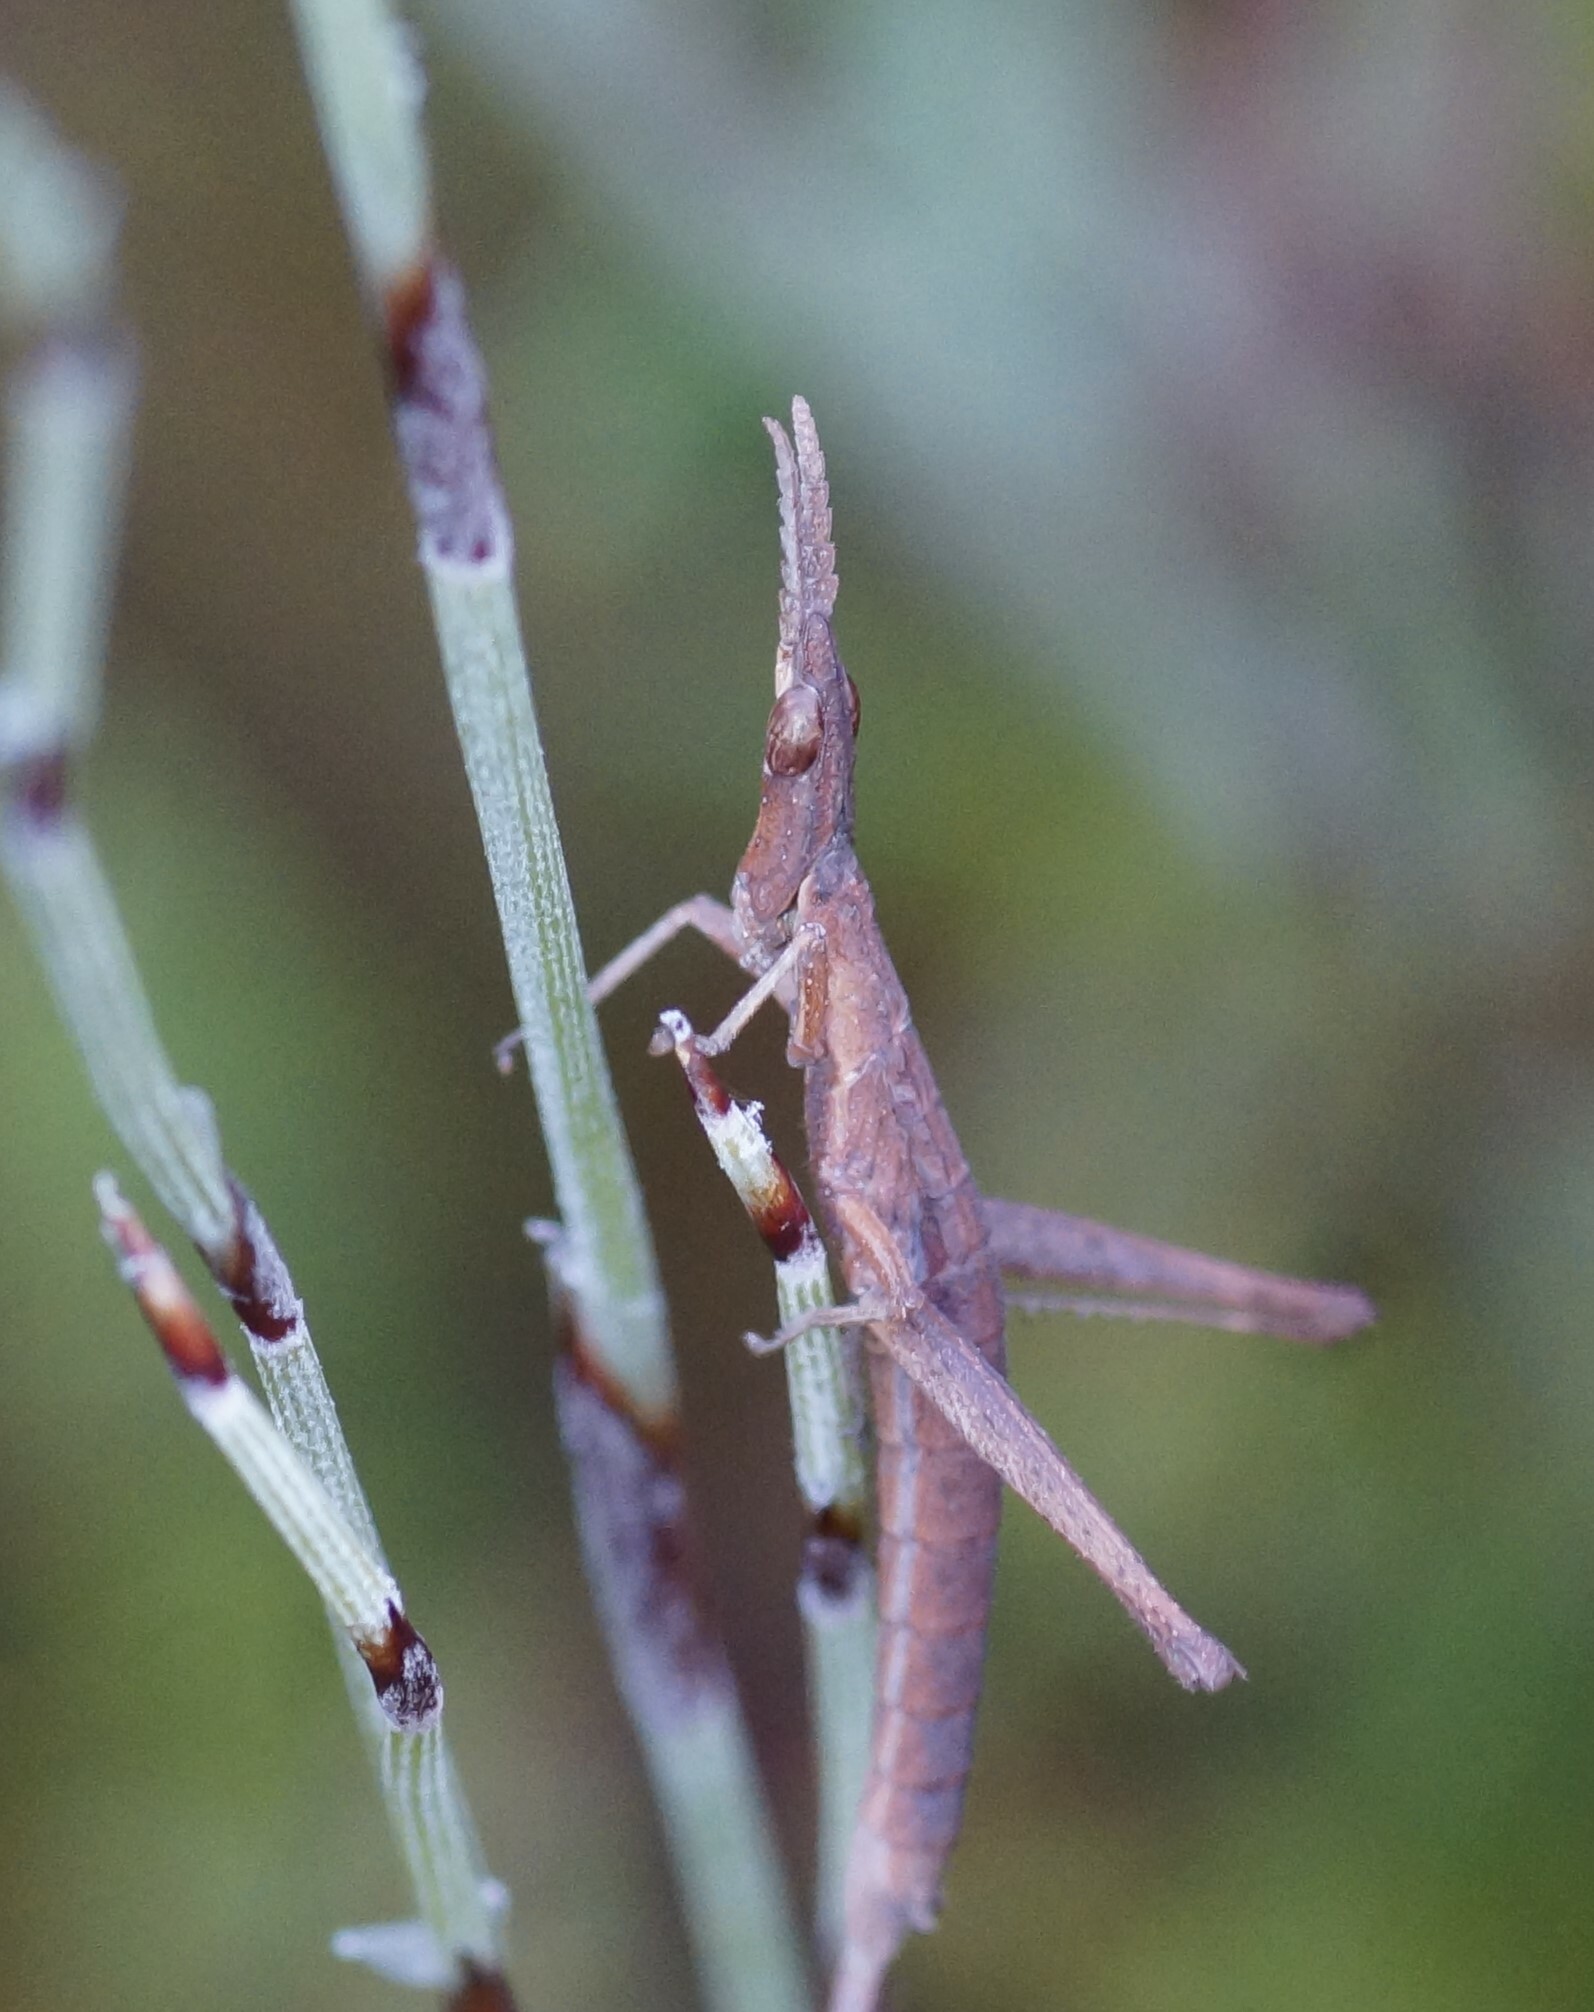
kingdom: Animalia
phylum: Arthropoda
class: Insecta
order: Orthoptera
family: Morabidae
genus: Vandiemenella
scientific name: Vandiemenella viatica
